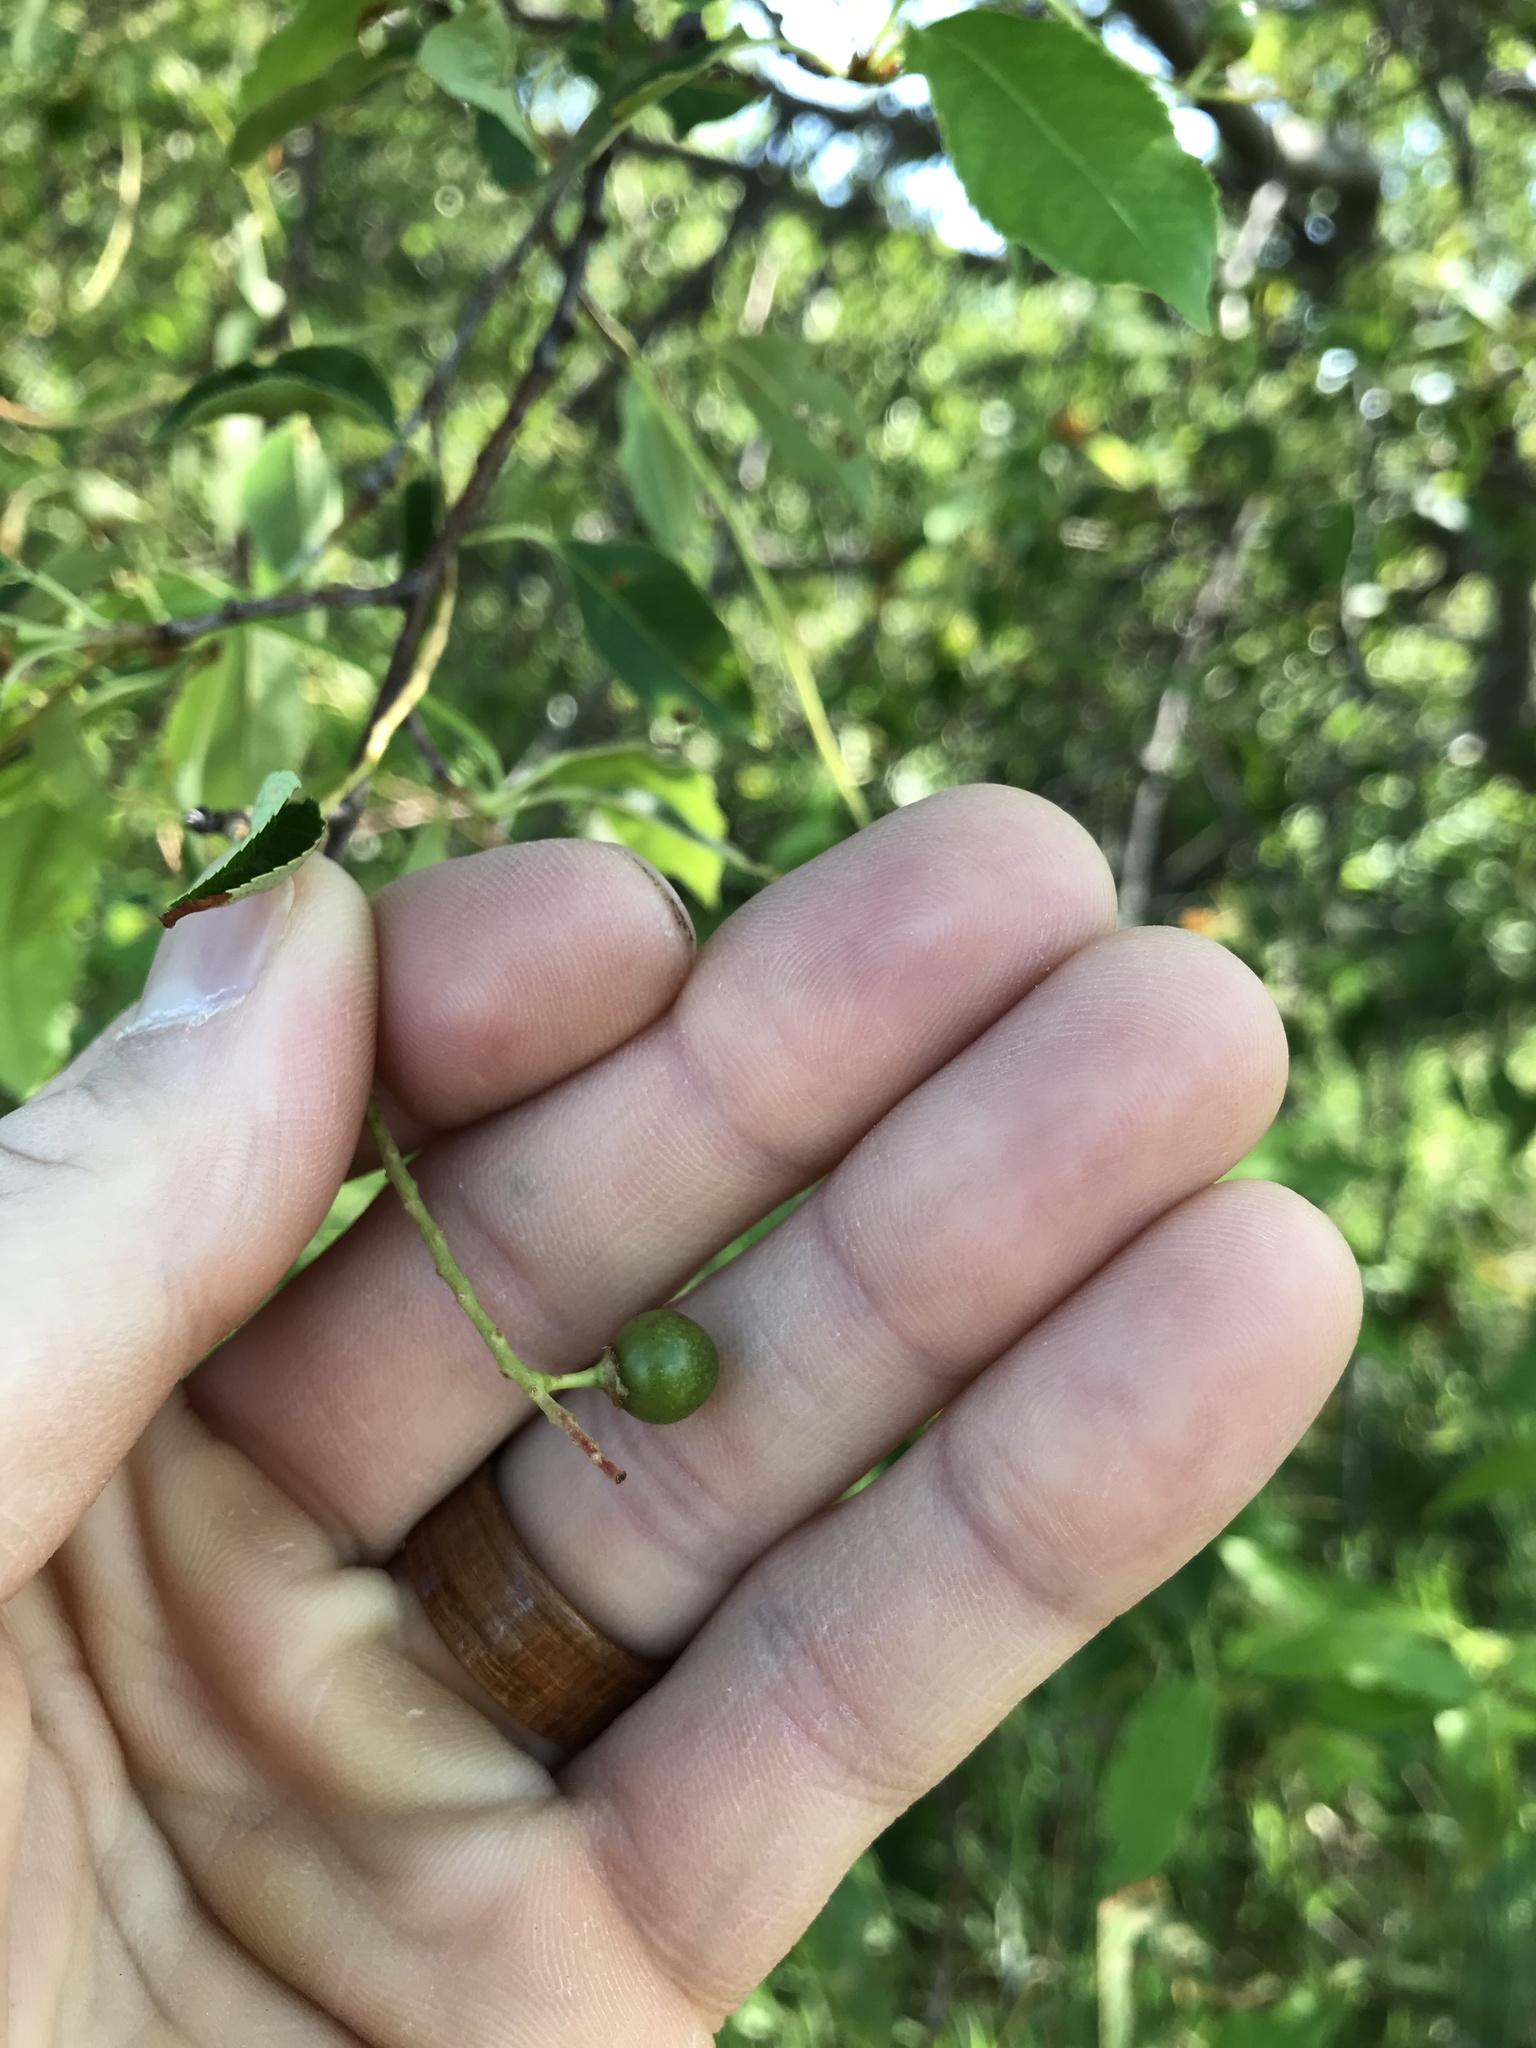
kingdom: Plantae
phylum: Tracheophyta
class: Magnoliopsida
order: Rosales
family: Rosaceae
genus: Prunus
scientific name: Prunus serotina
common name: Black cherry
